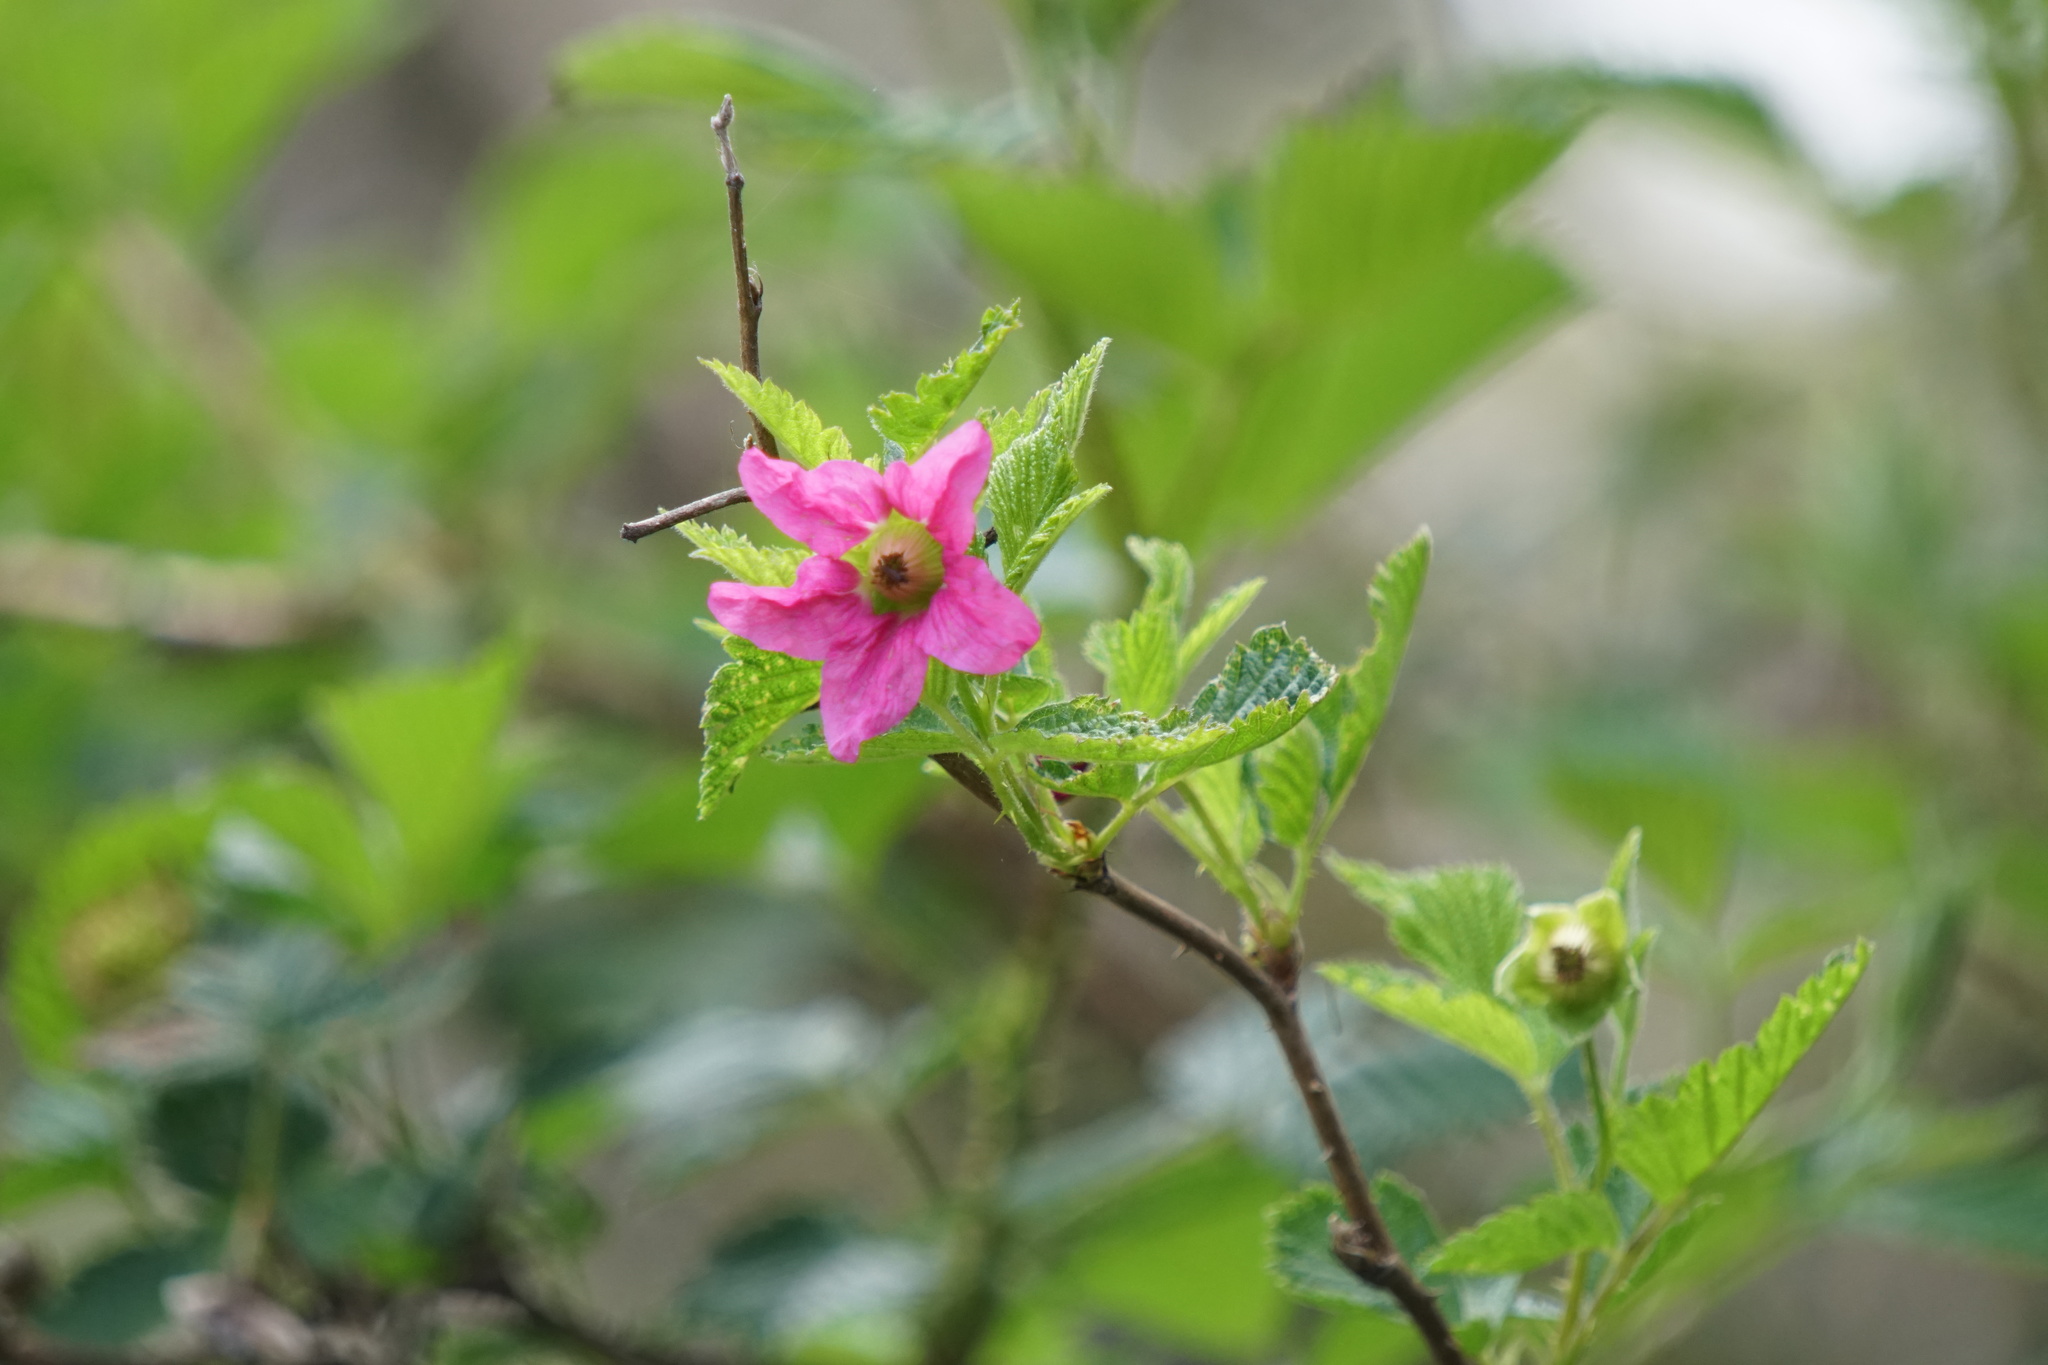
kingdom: Plantae
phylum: Tracheophyta
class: Magnoliopsida
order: Rosales
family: Rosaceae
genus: Rubus
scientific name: Rubus spectabilis
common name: Salmonberry
